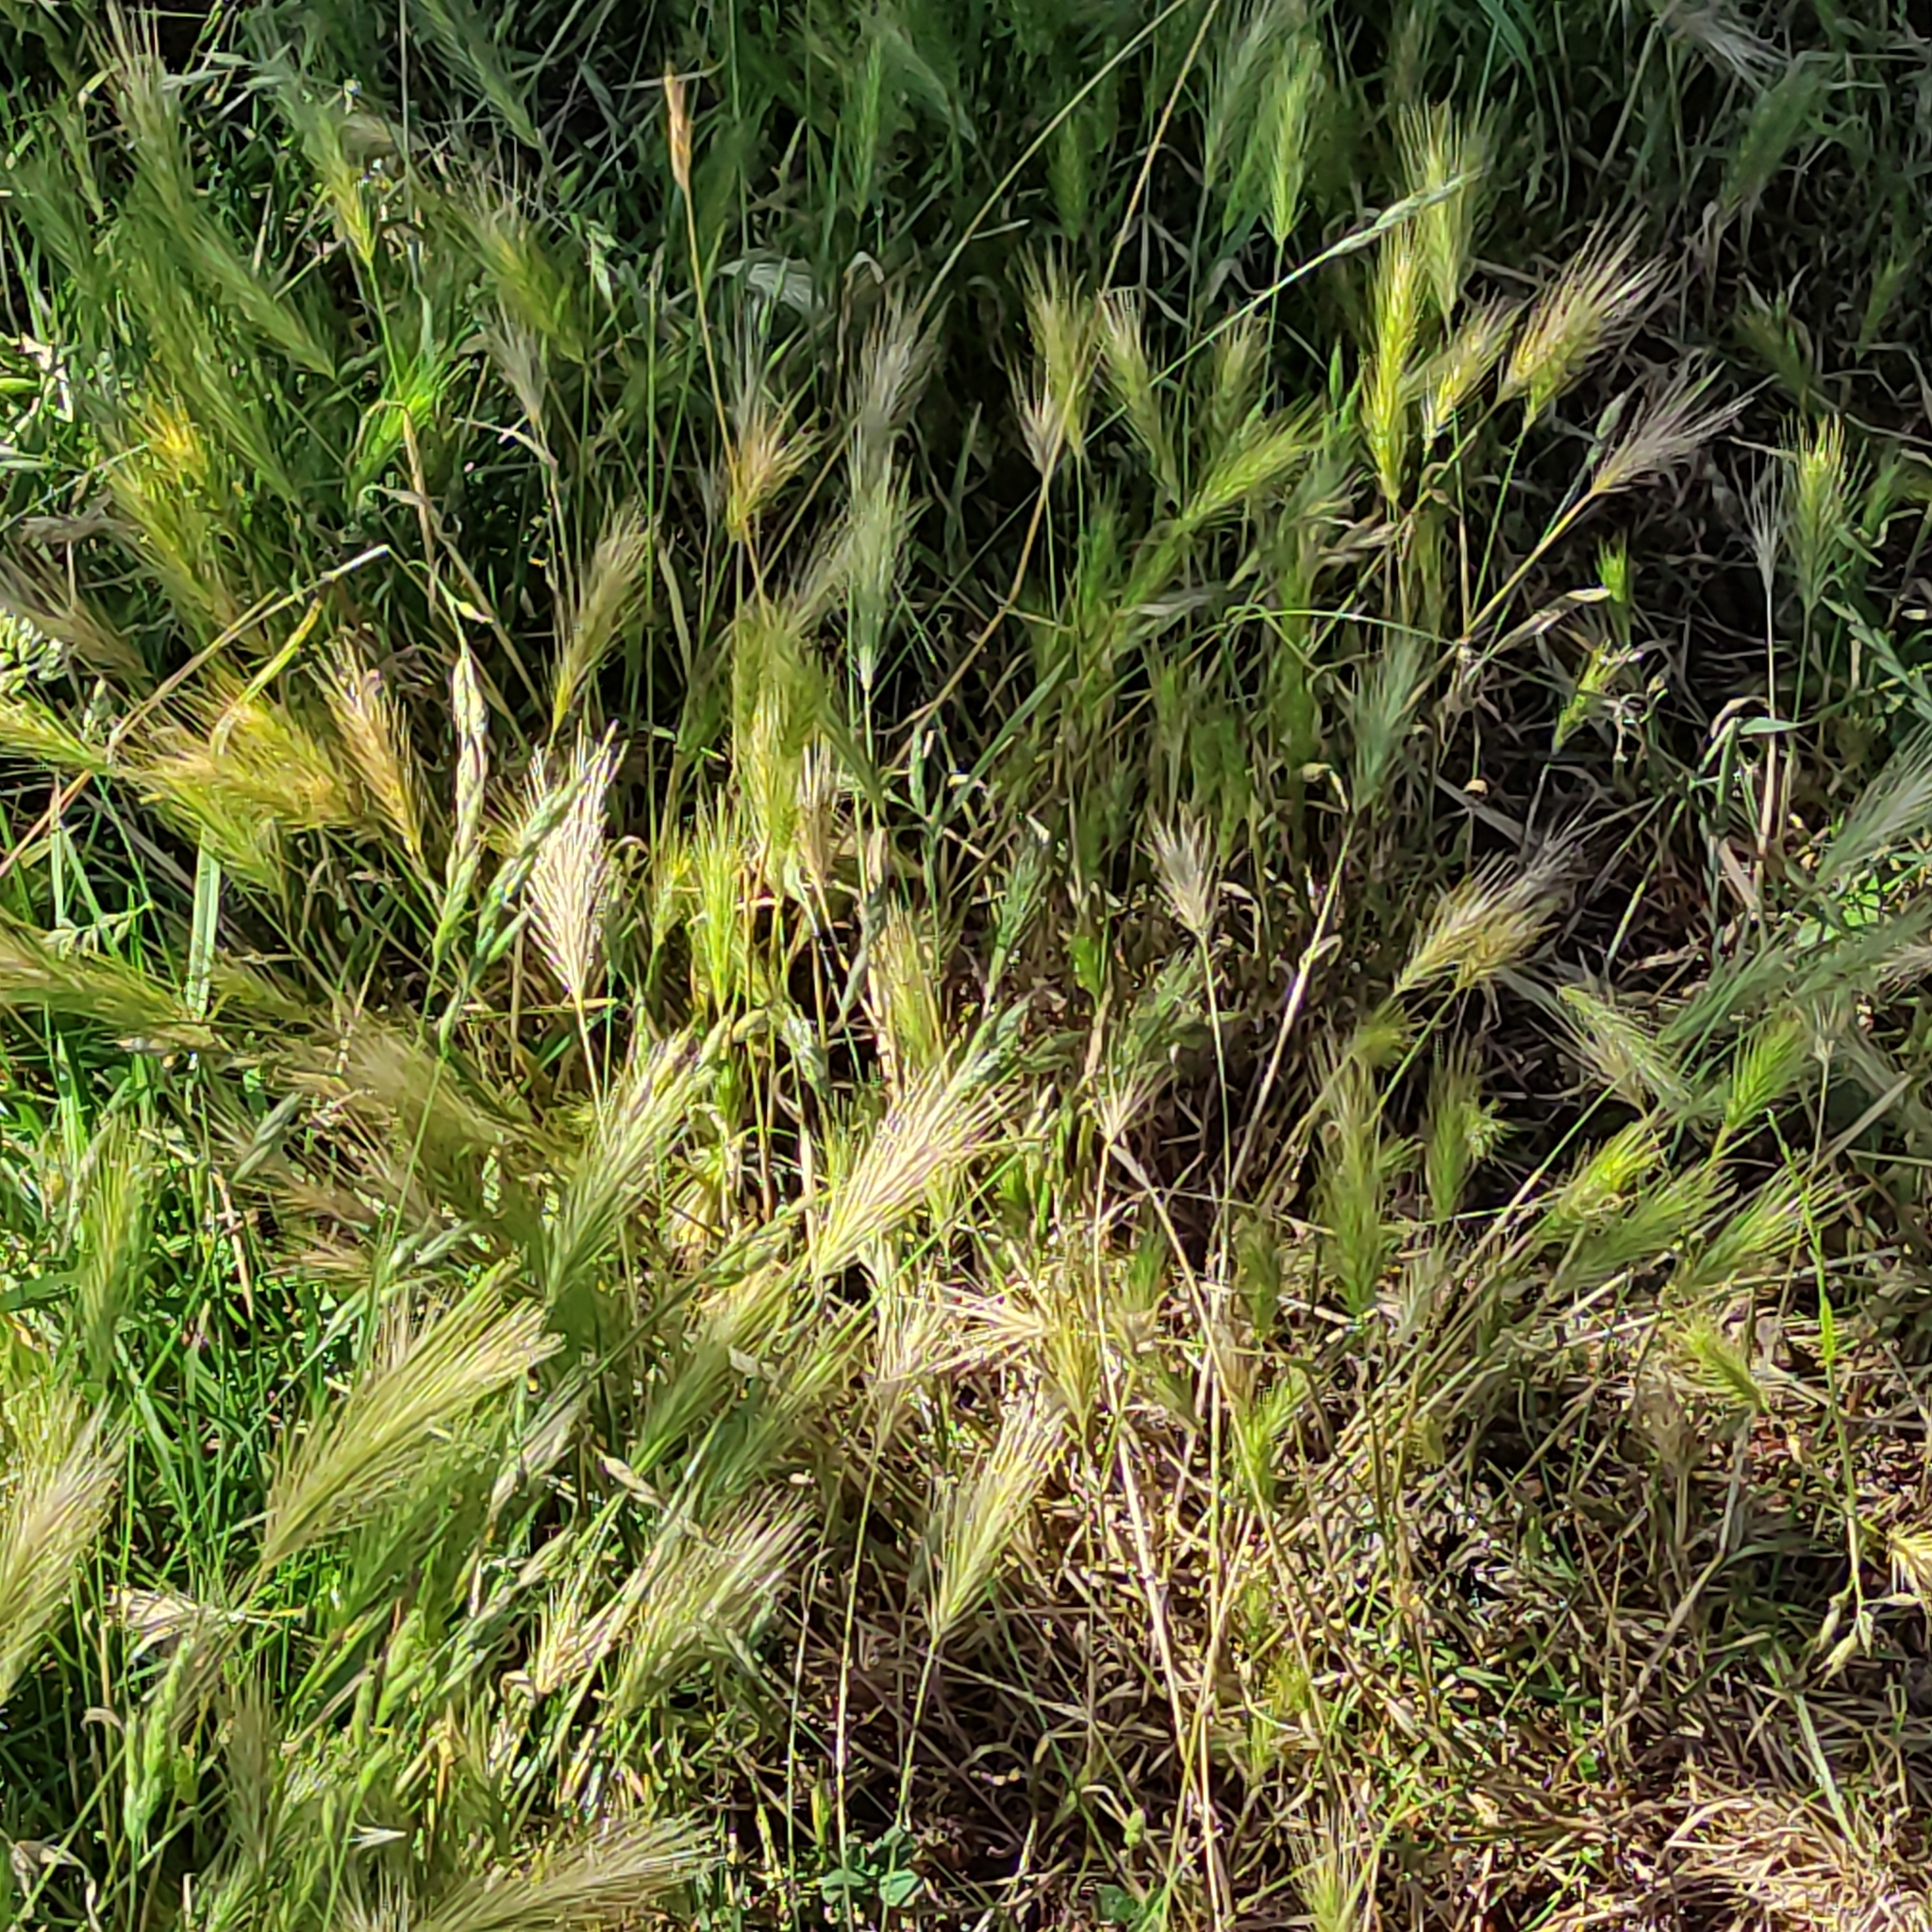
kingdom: Plantae
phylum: Tracheophyta
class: Liliopsida
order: Poales
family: Poaceae
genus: Hordeum
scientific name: Hordeum murinum
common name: Wall barley
